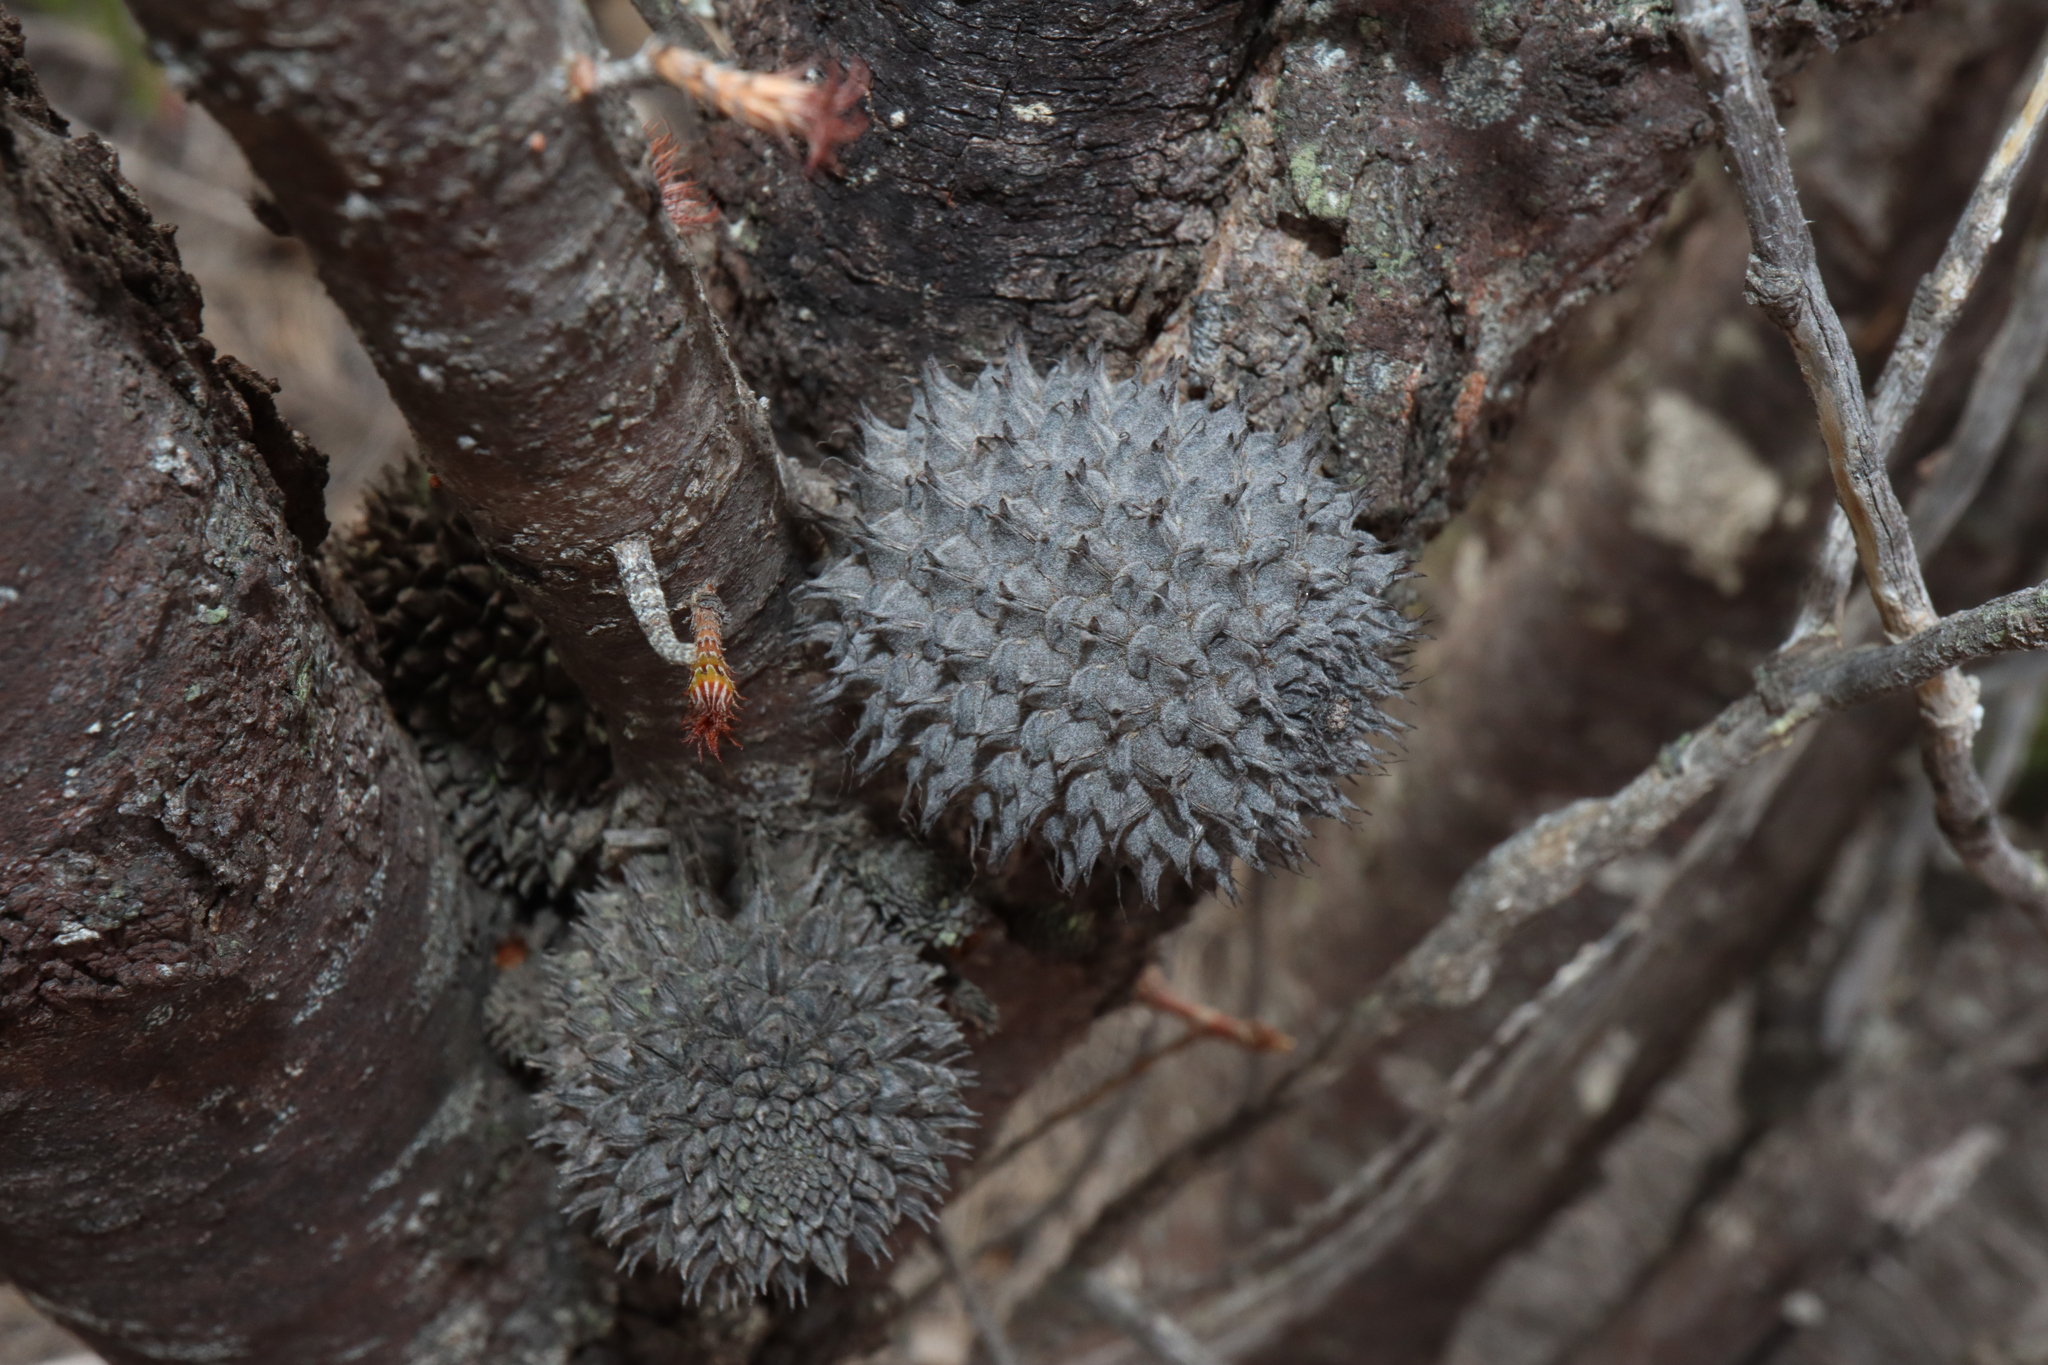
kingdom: Plantae
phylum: Tracheophyta
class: Magnoliopsida
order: Fagales
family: Casuarinaceae
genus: Allocasuarina
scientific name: Allocasuarina acutivalvis
